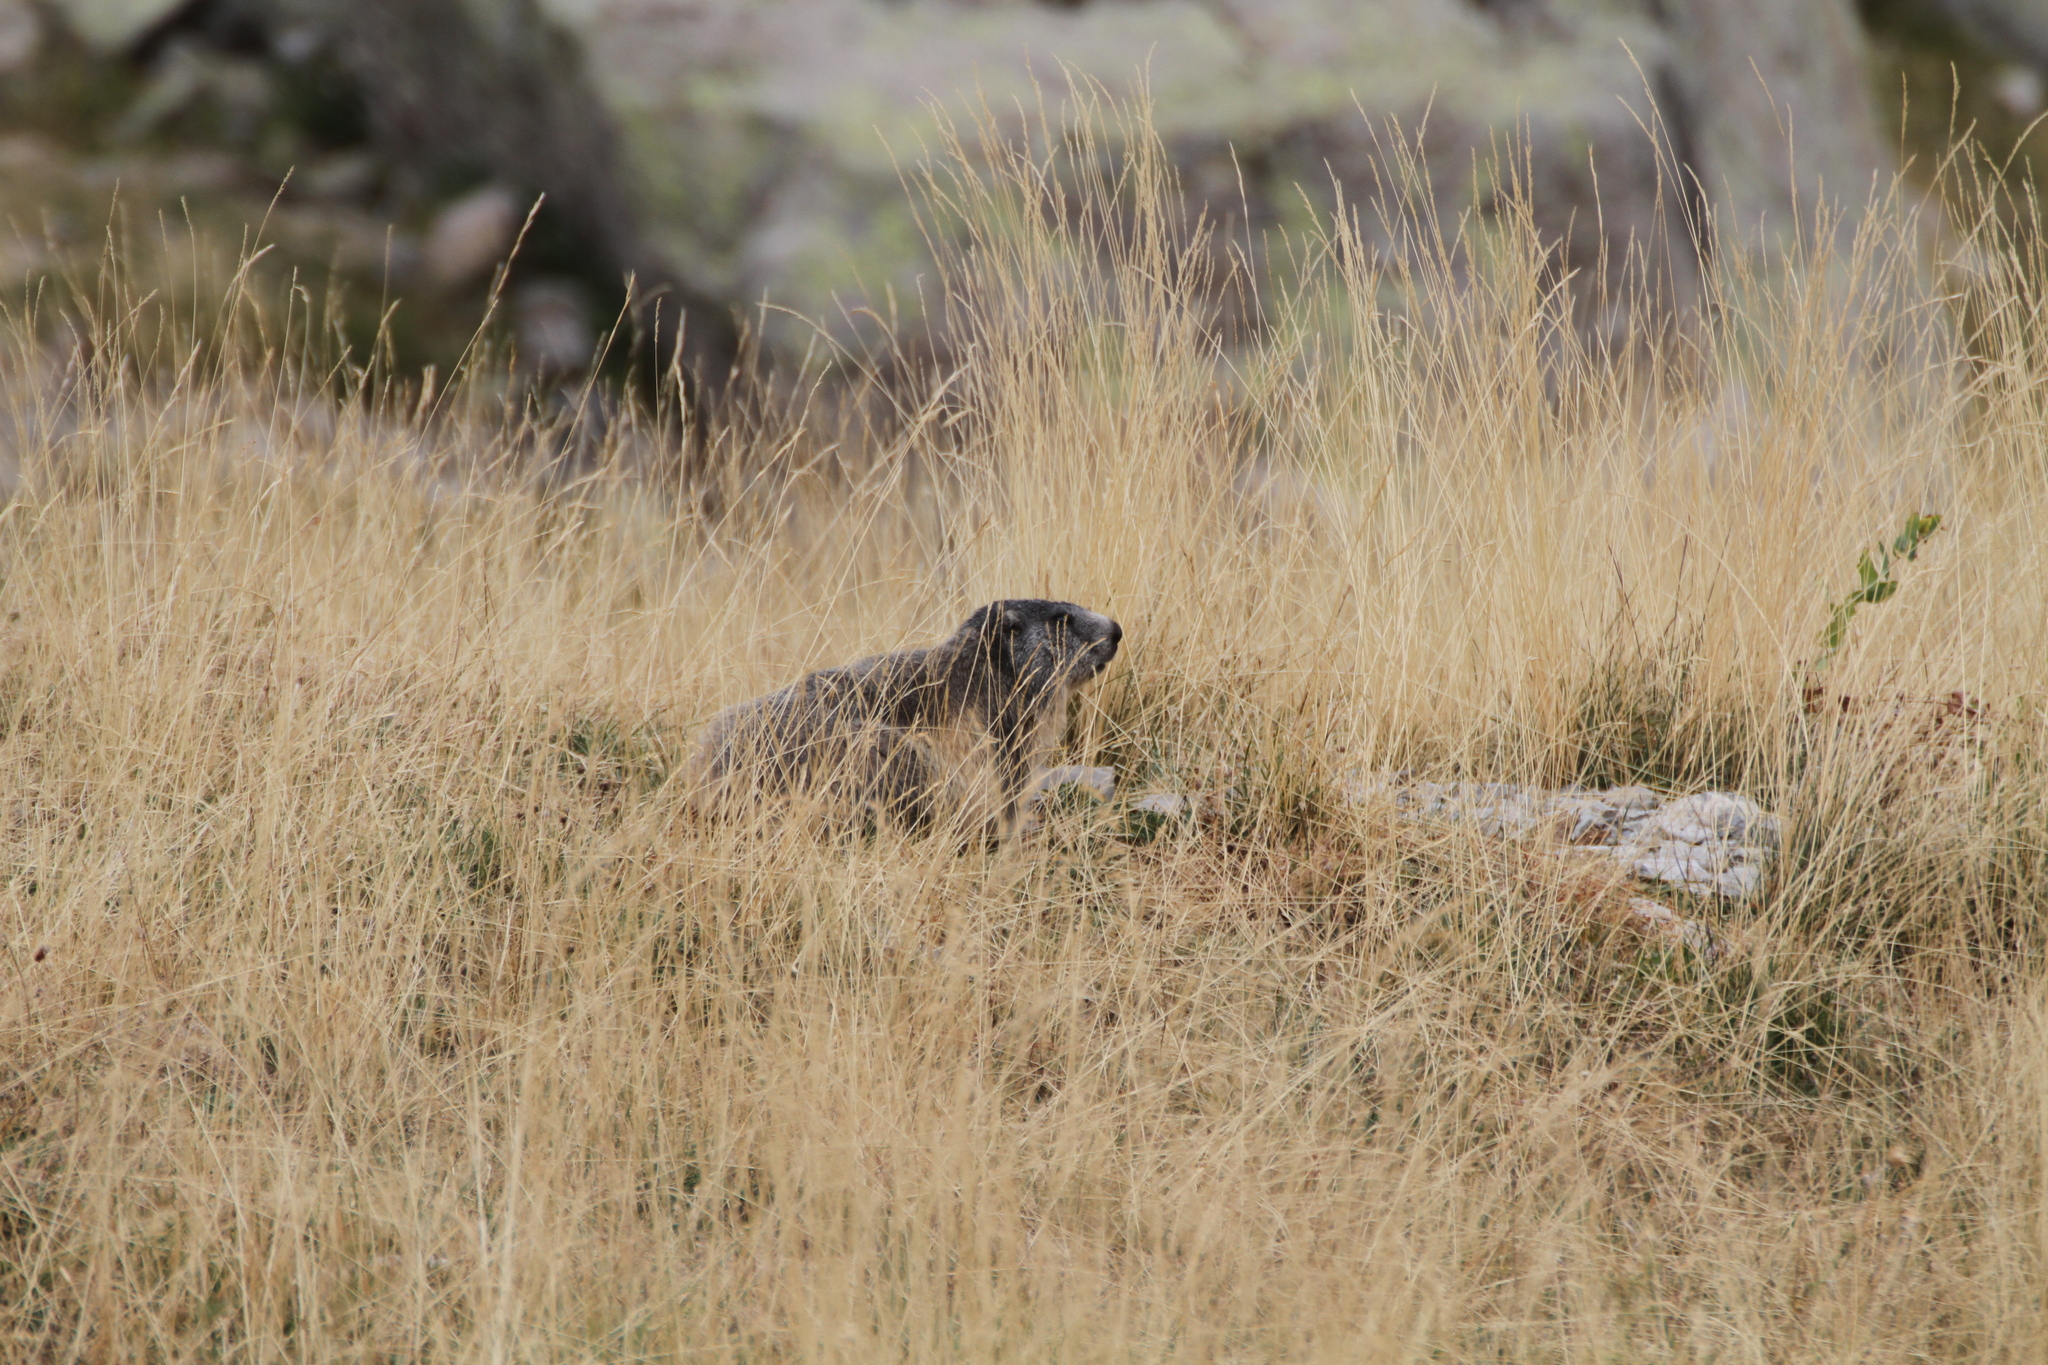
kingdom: Animalia
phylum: Chordata
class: Mammalia
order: Rodentia
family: Sciuridae
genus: Marmota
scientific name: Marmota marmota
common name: Alpine marmot
